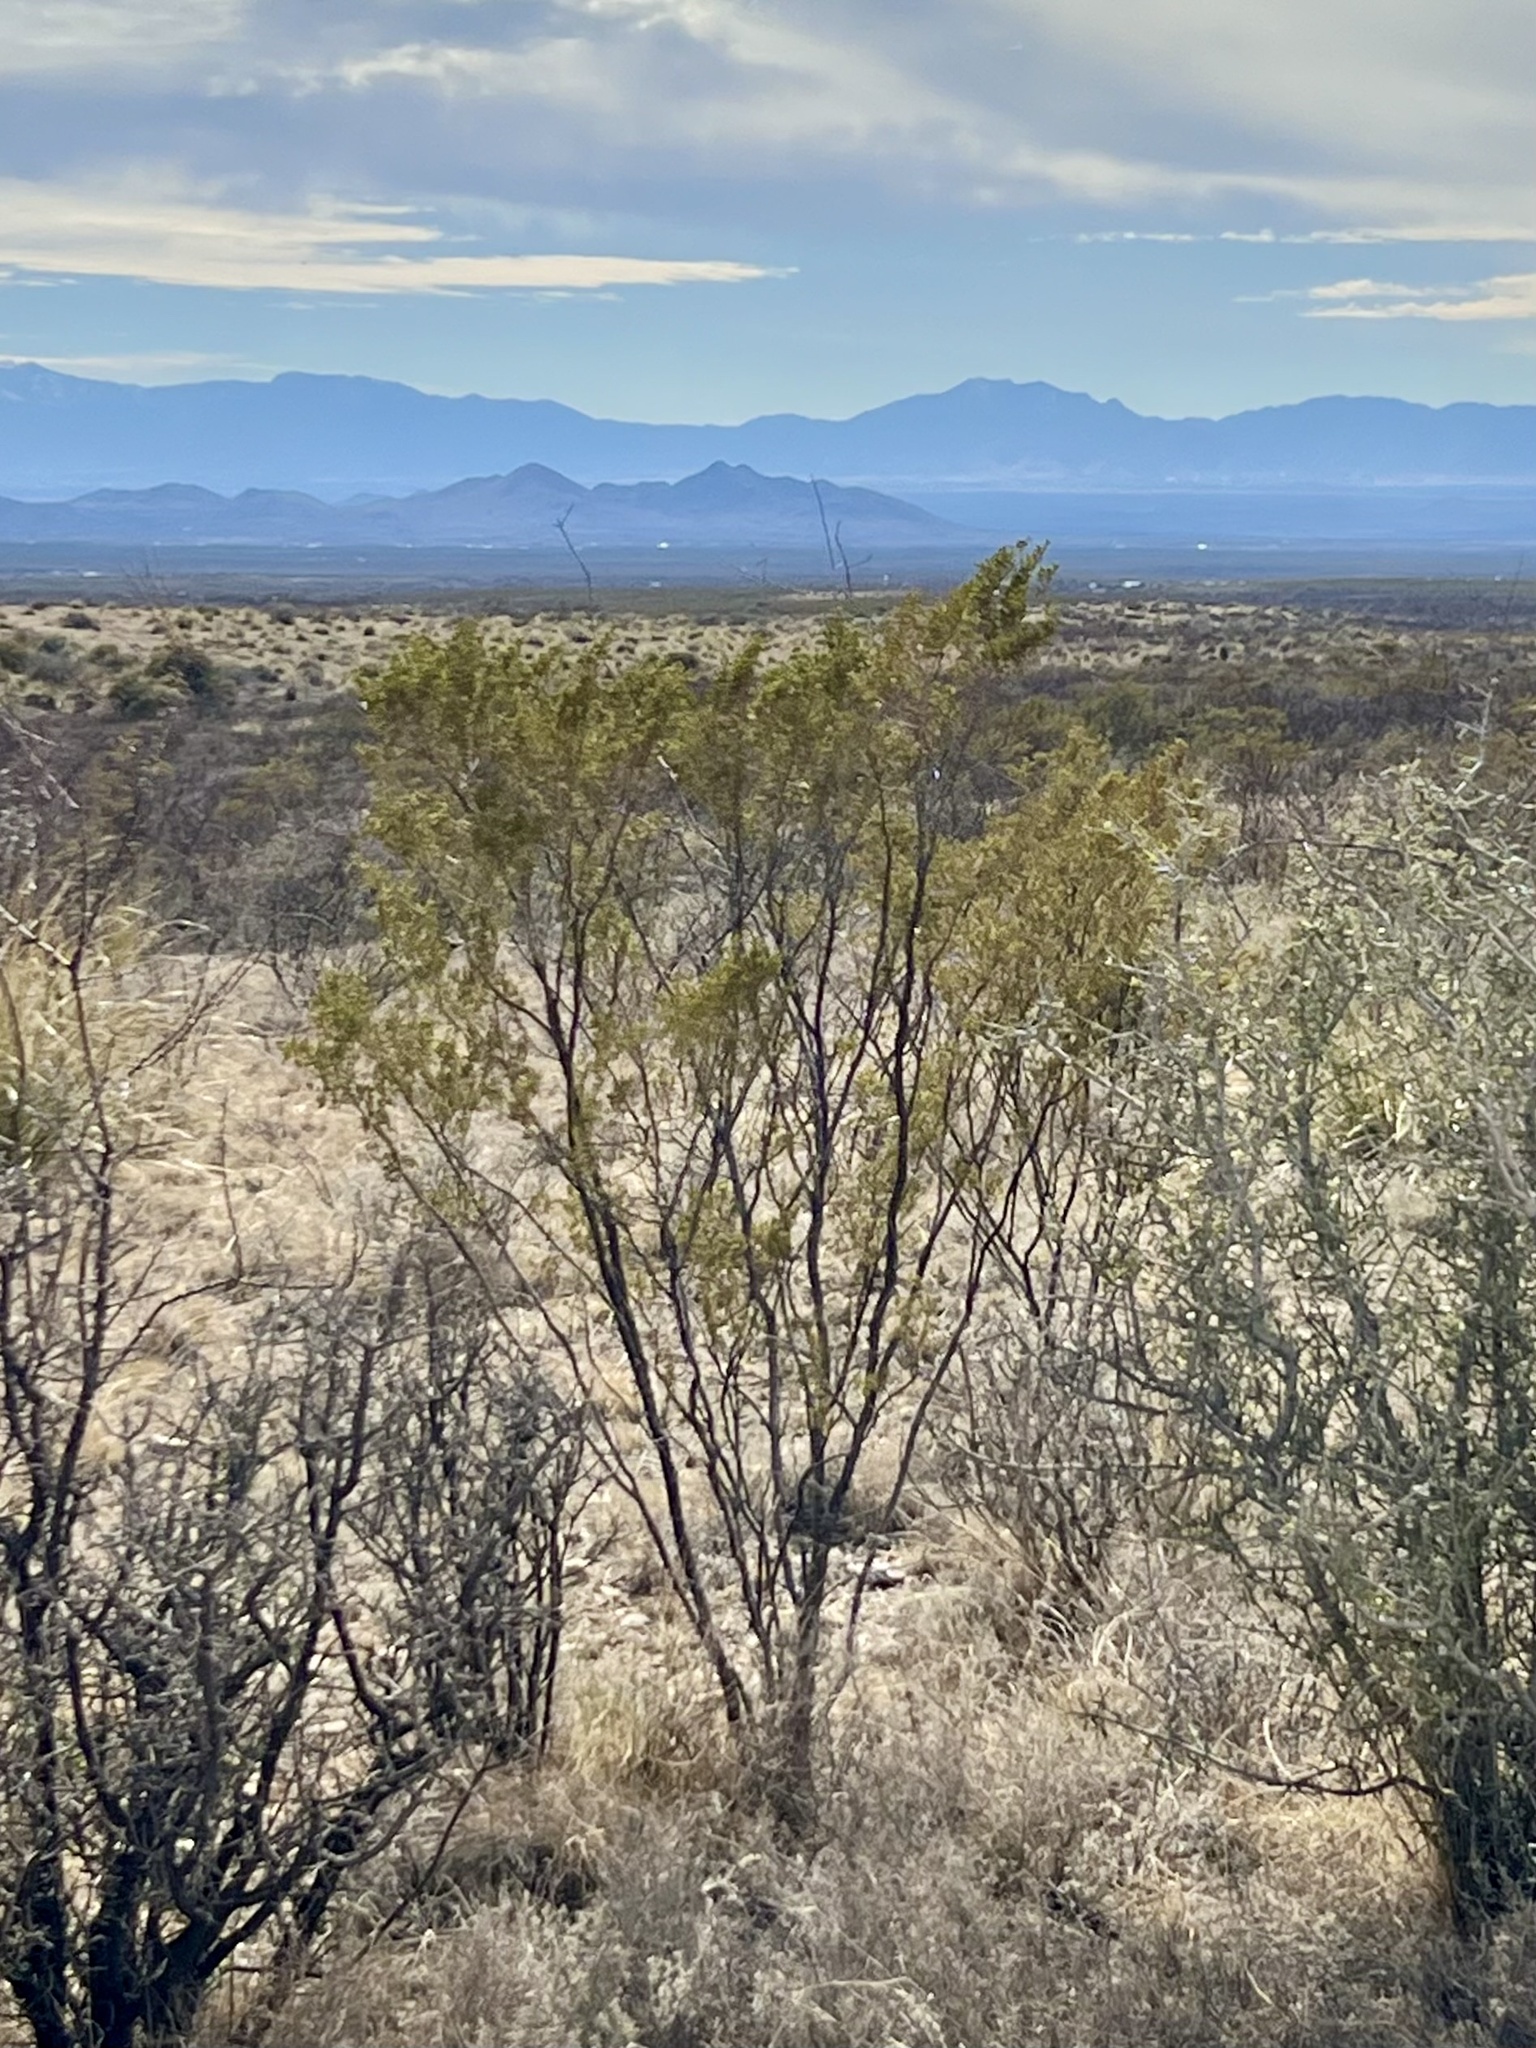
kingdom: Plantae
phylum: Tracheophyta
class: Magnoliopsida
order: Zygophyllales
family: Zygophyllaceae
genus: Larrea
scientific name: Larrea tridentata
